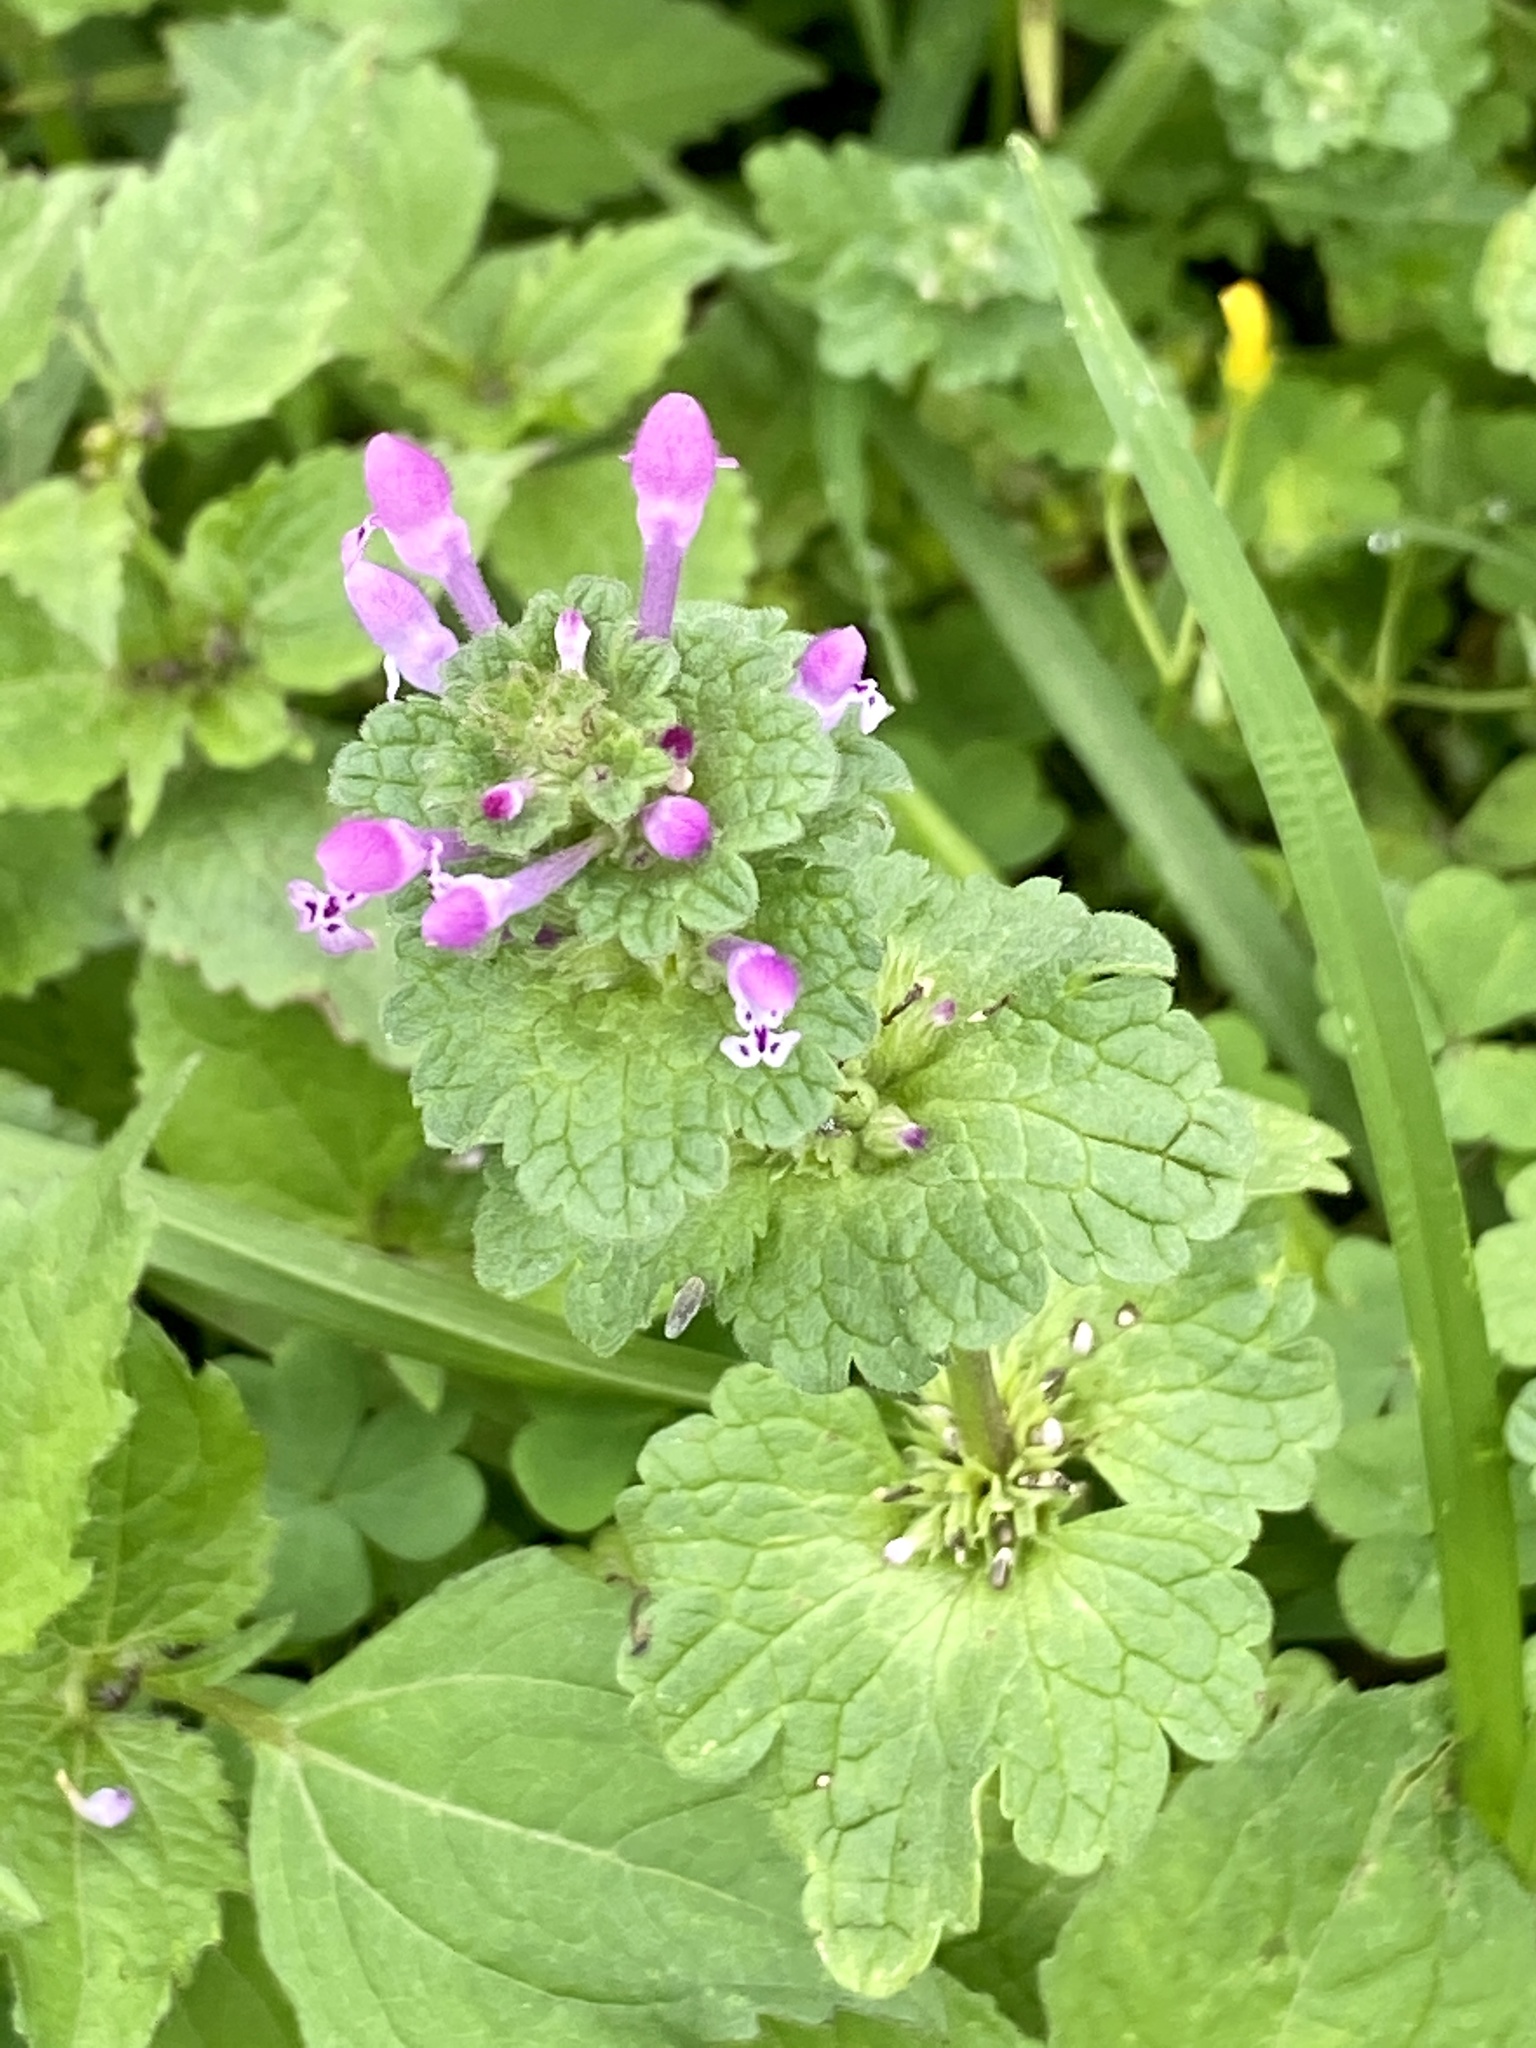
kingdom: Plantae
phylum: Tracheophyta
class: Magnoliopsida
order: Lamiales
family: Lamiaceae
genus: Lamium
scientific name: Lamium amplexicaule
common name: Henbit dead-nettle
